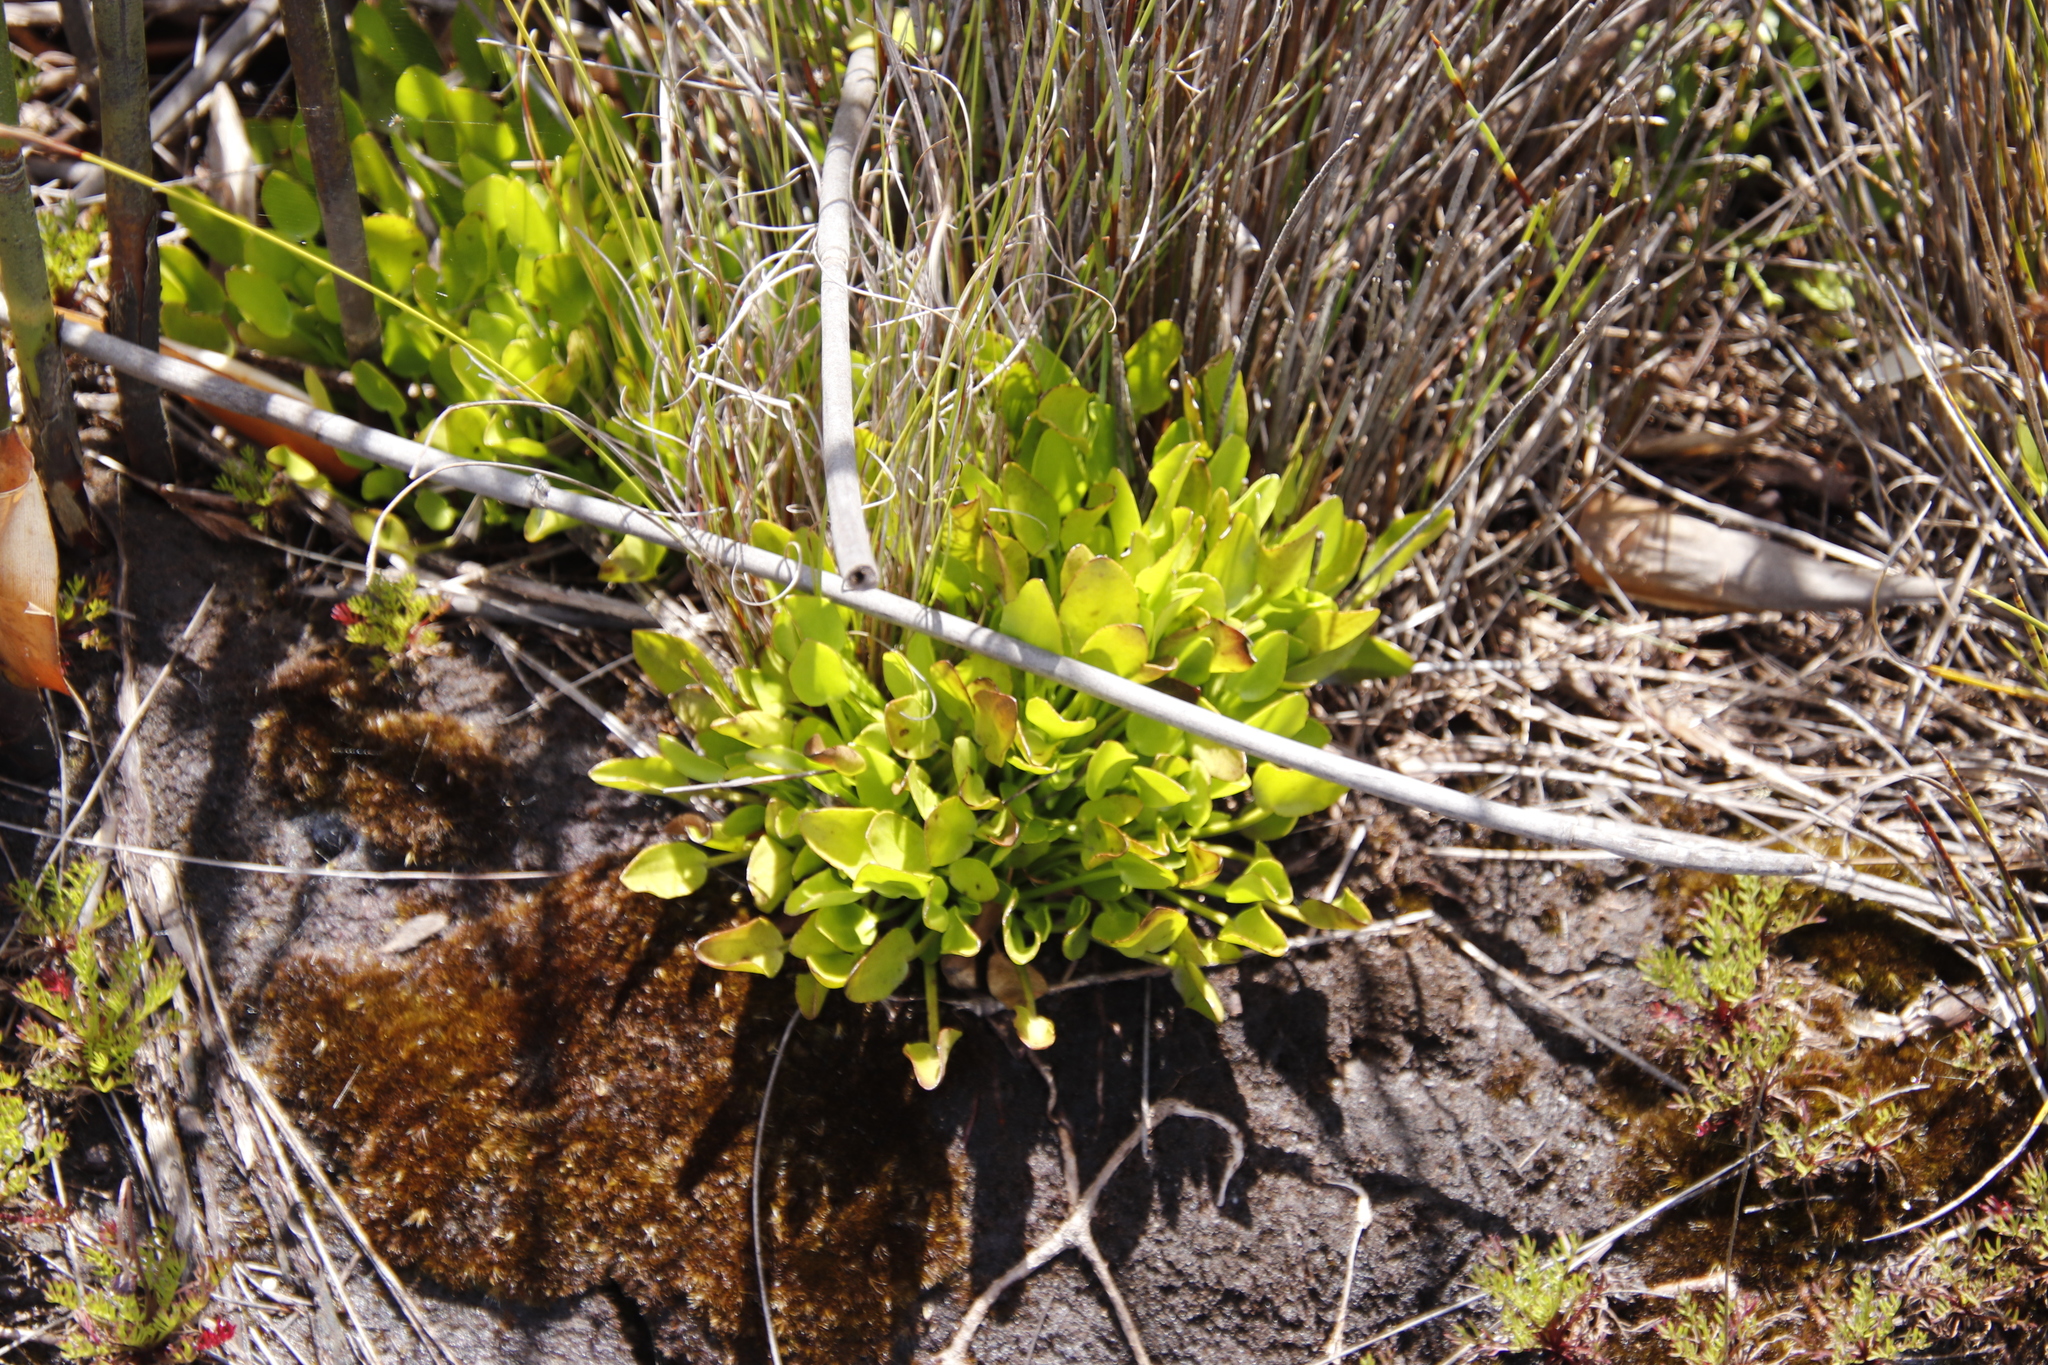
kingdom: Plantae
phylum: Tracheophyta
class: Magnoliopsida
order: Asterales
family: Menyanthaceae
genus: Villarsia
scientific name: Villarsia manningiana
